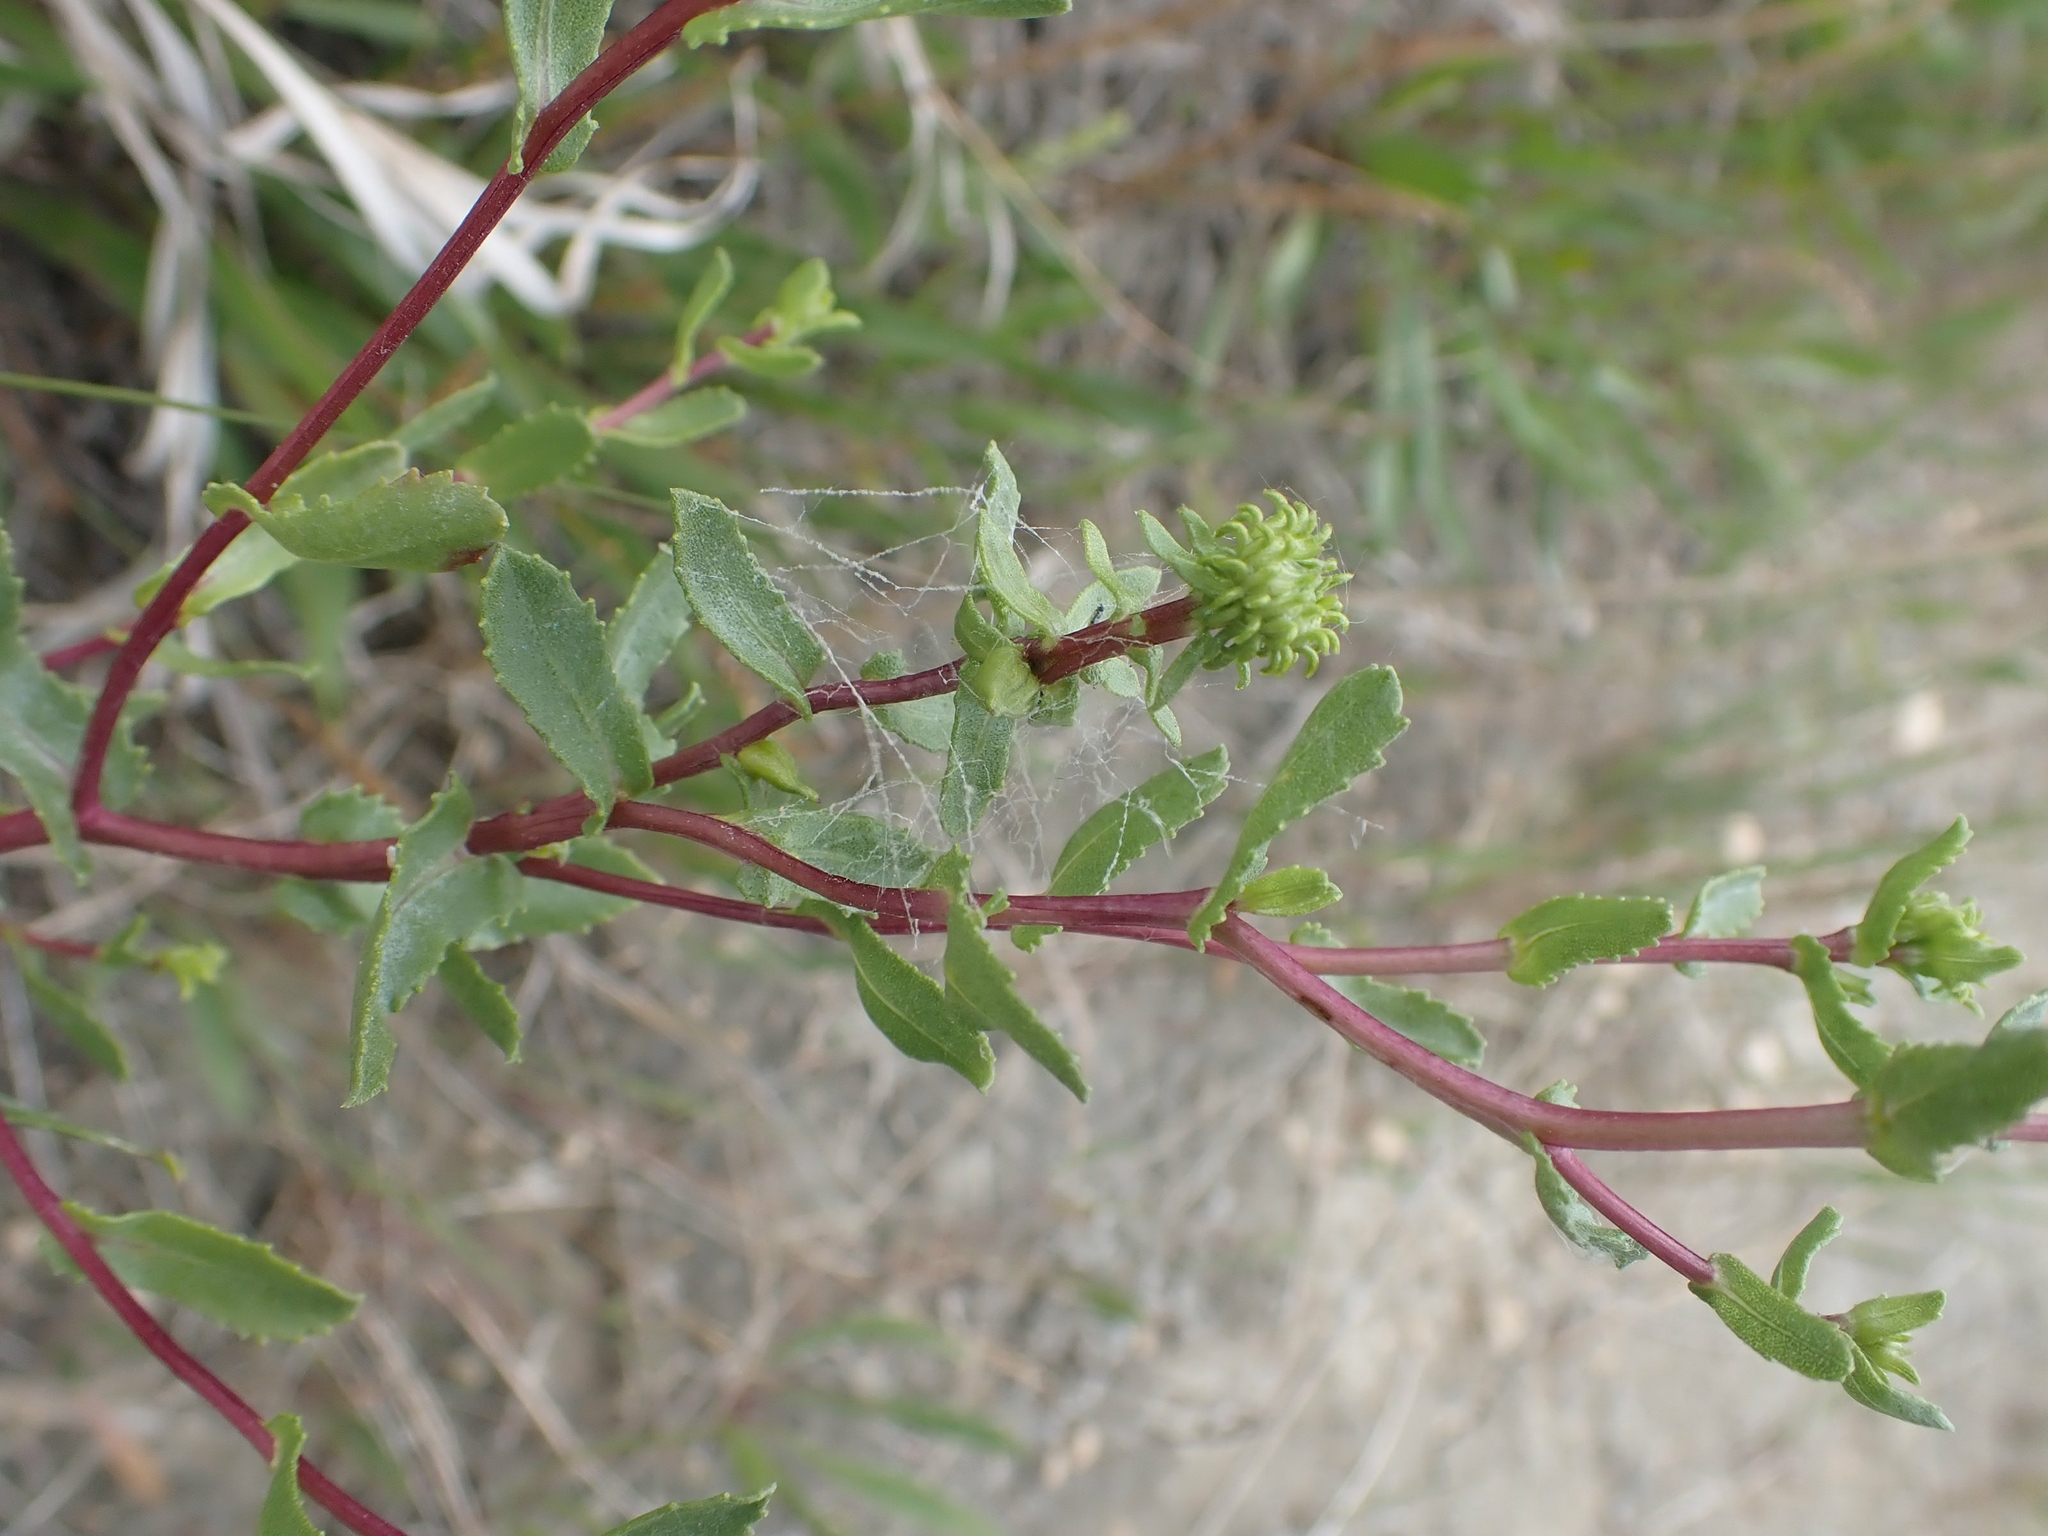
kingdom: Plantae
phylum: Tracheophyta
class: Magnoliopsida
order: Asterales
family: Asteraceae
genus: Grindelia
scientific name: Grindelia squarrosa
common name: Curly-cup gumweed
